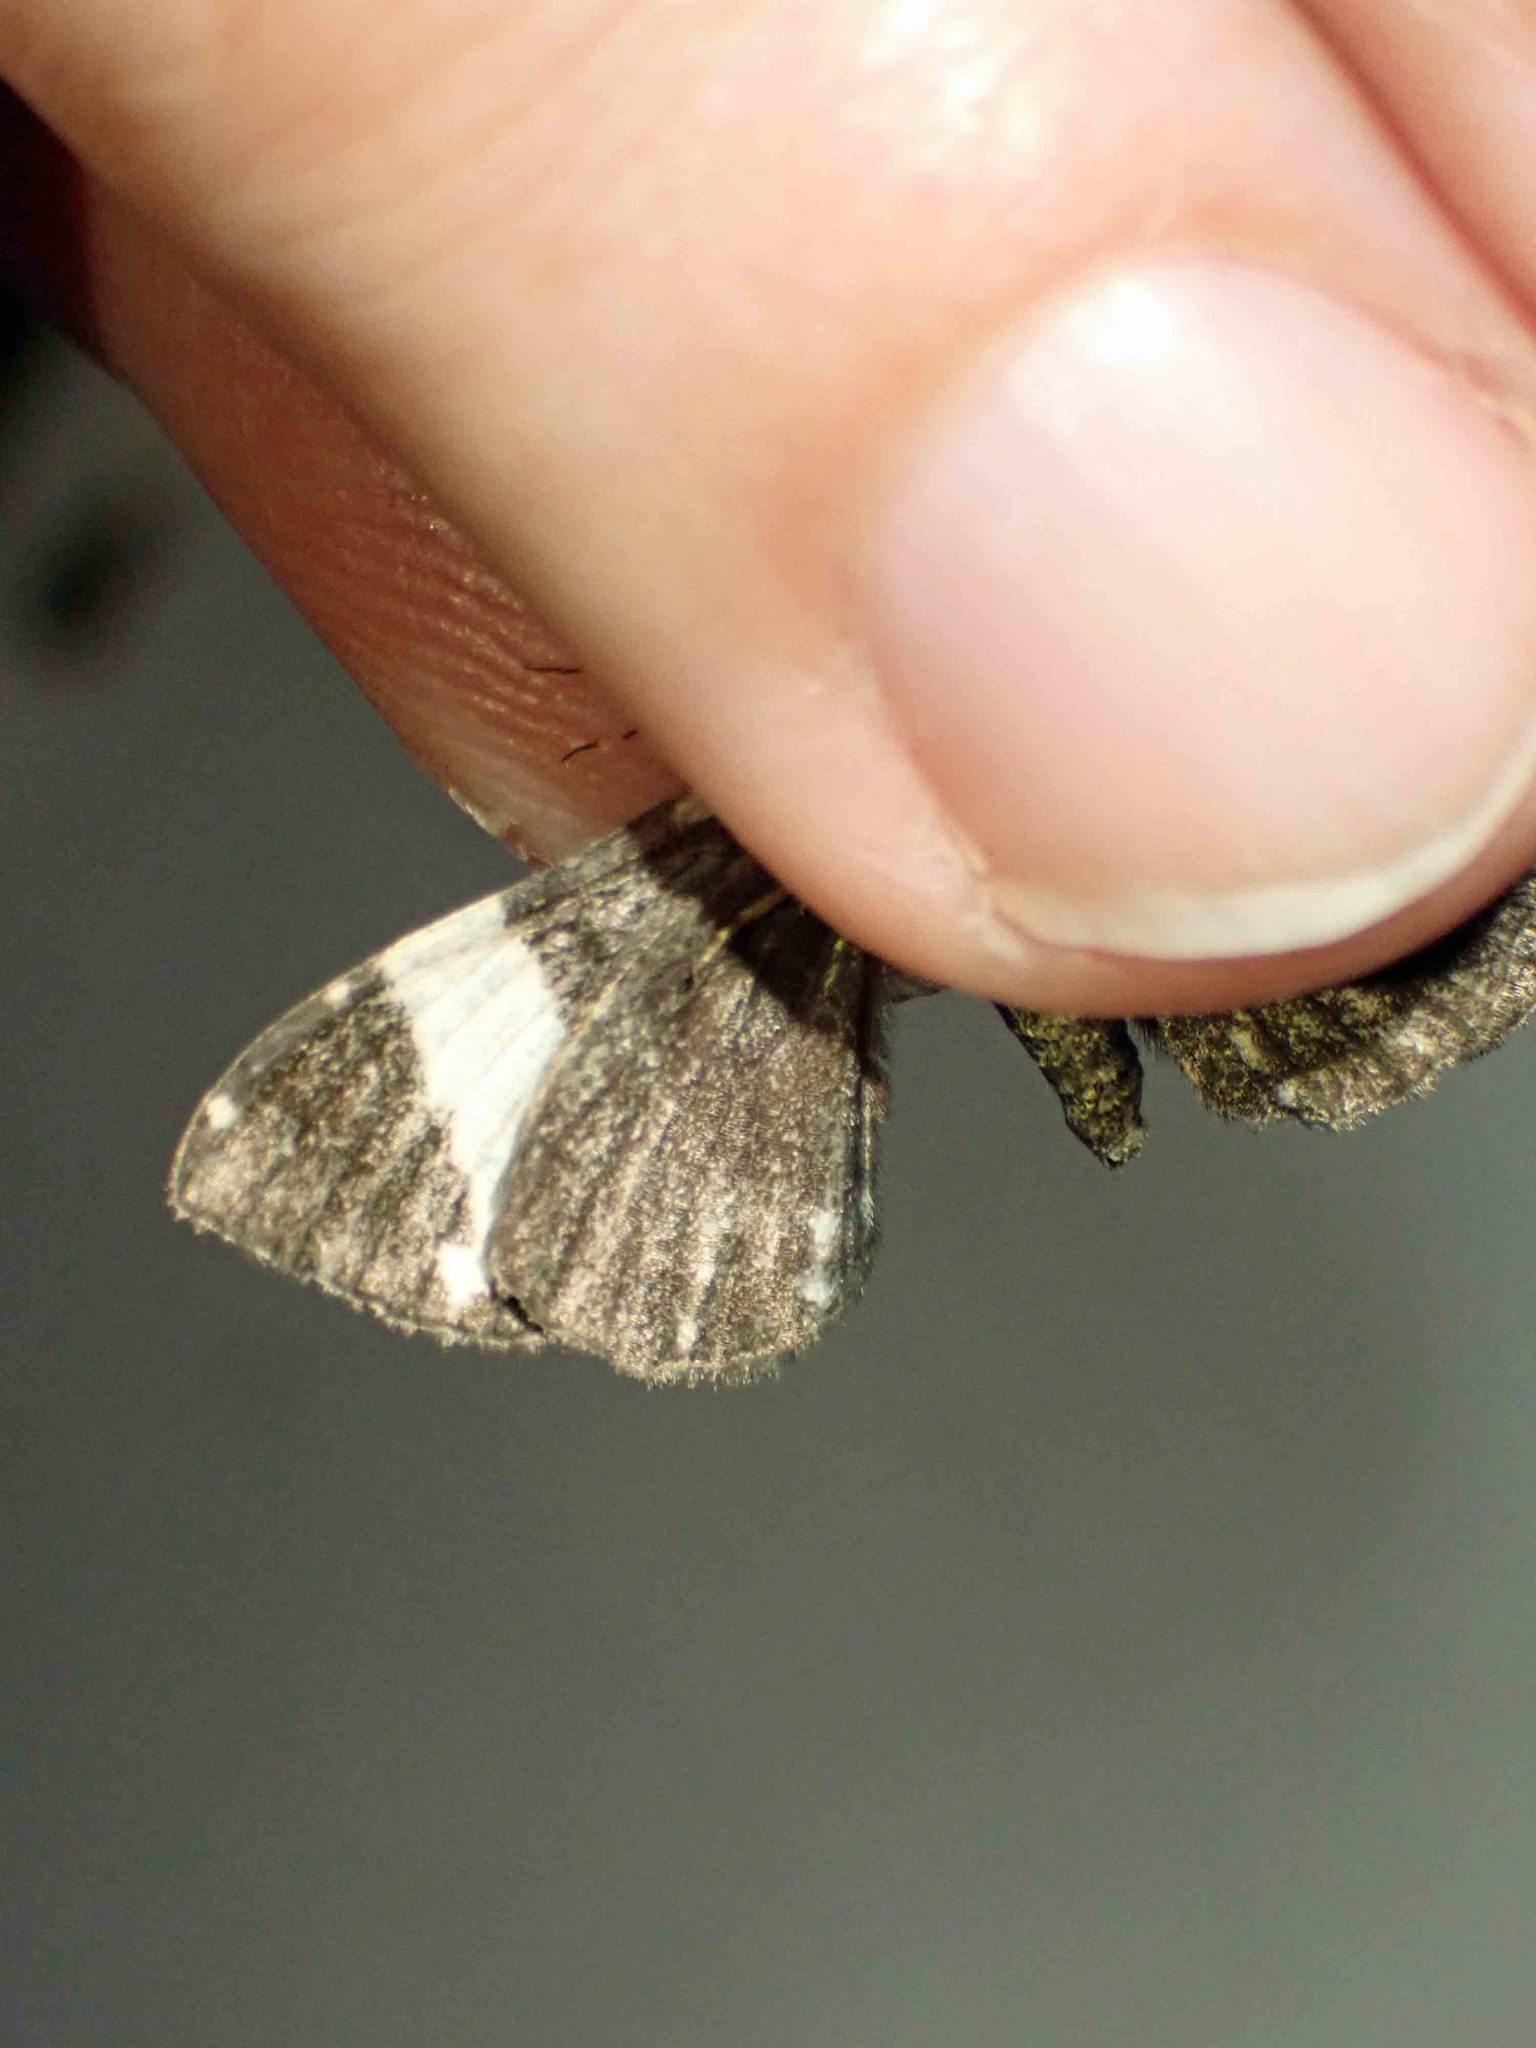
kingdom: Animalia
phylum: Arthropoda
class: Insecta
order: Lepidoptera
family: Geometridae
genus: Rheumaptera
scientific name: Rheumaptera
